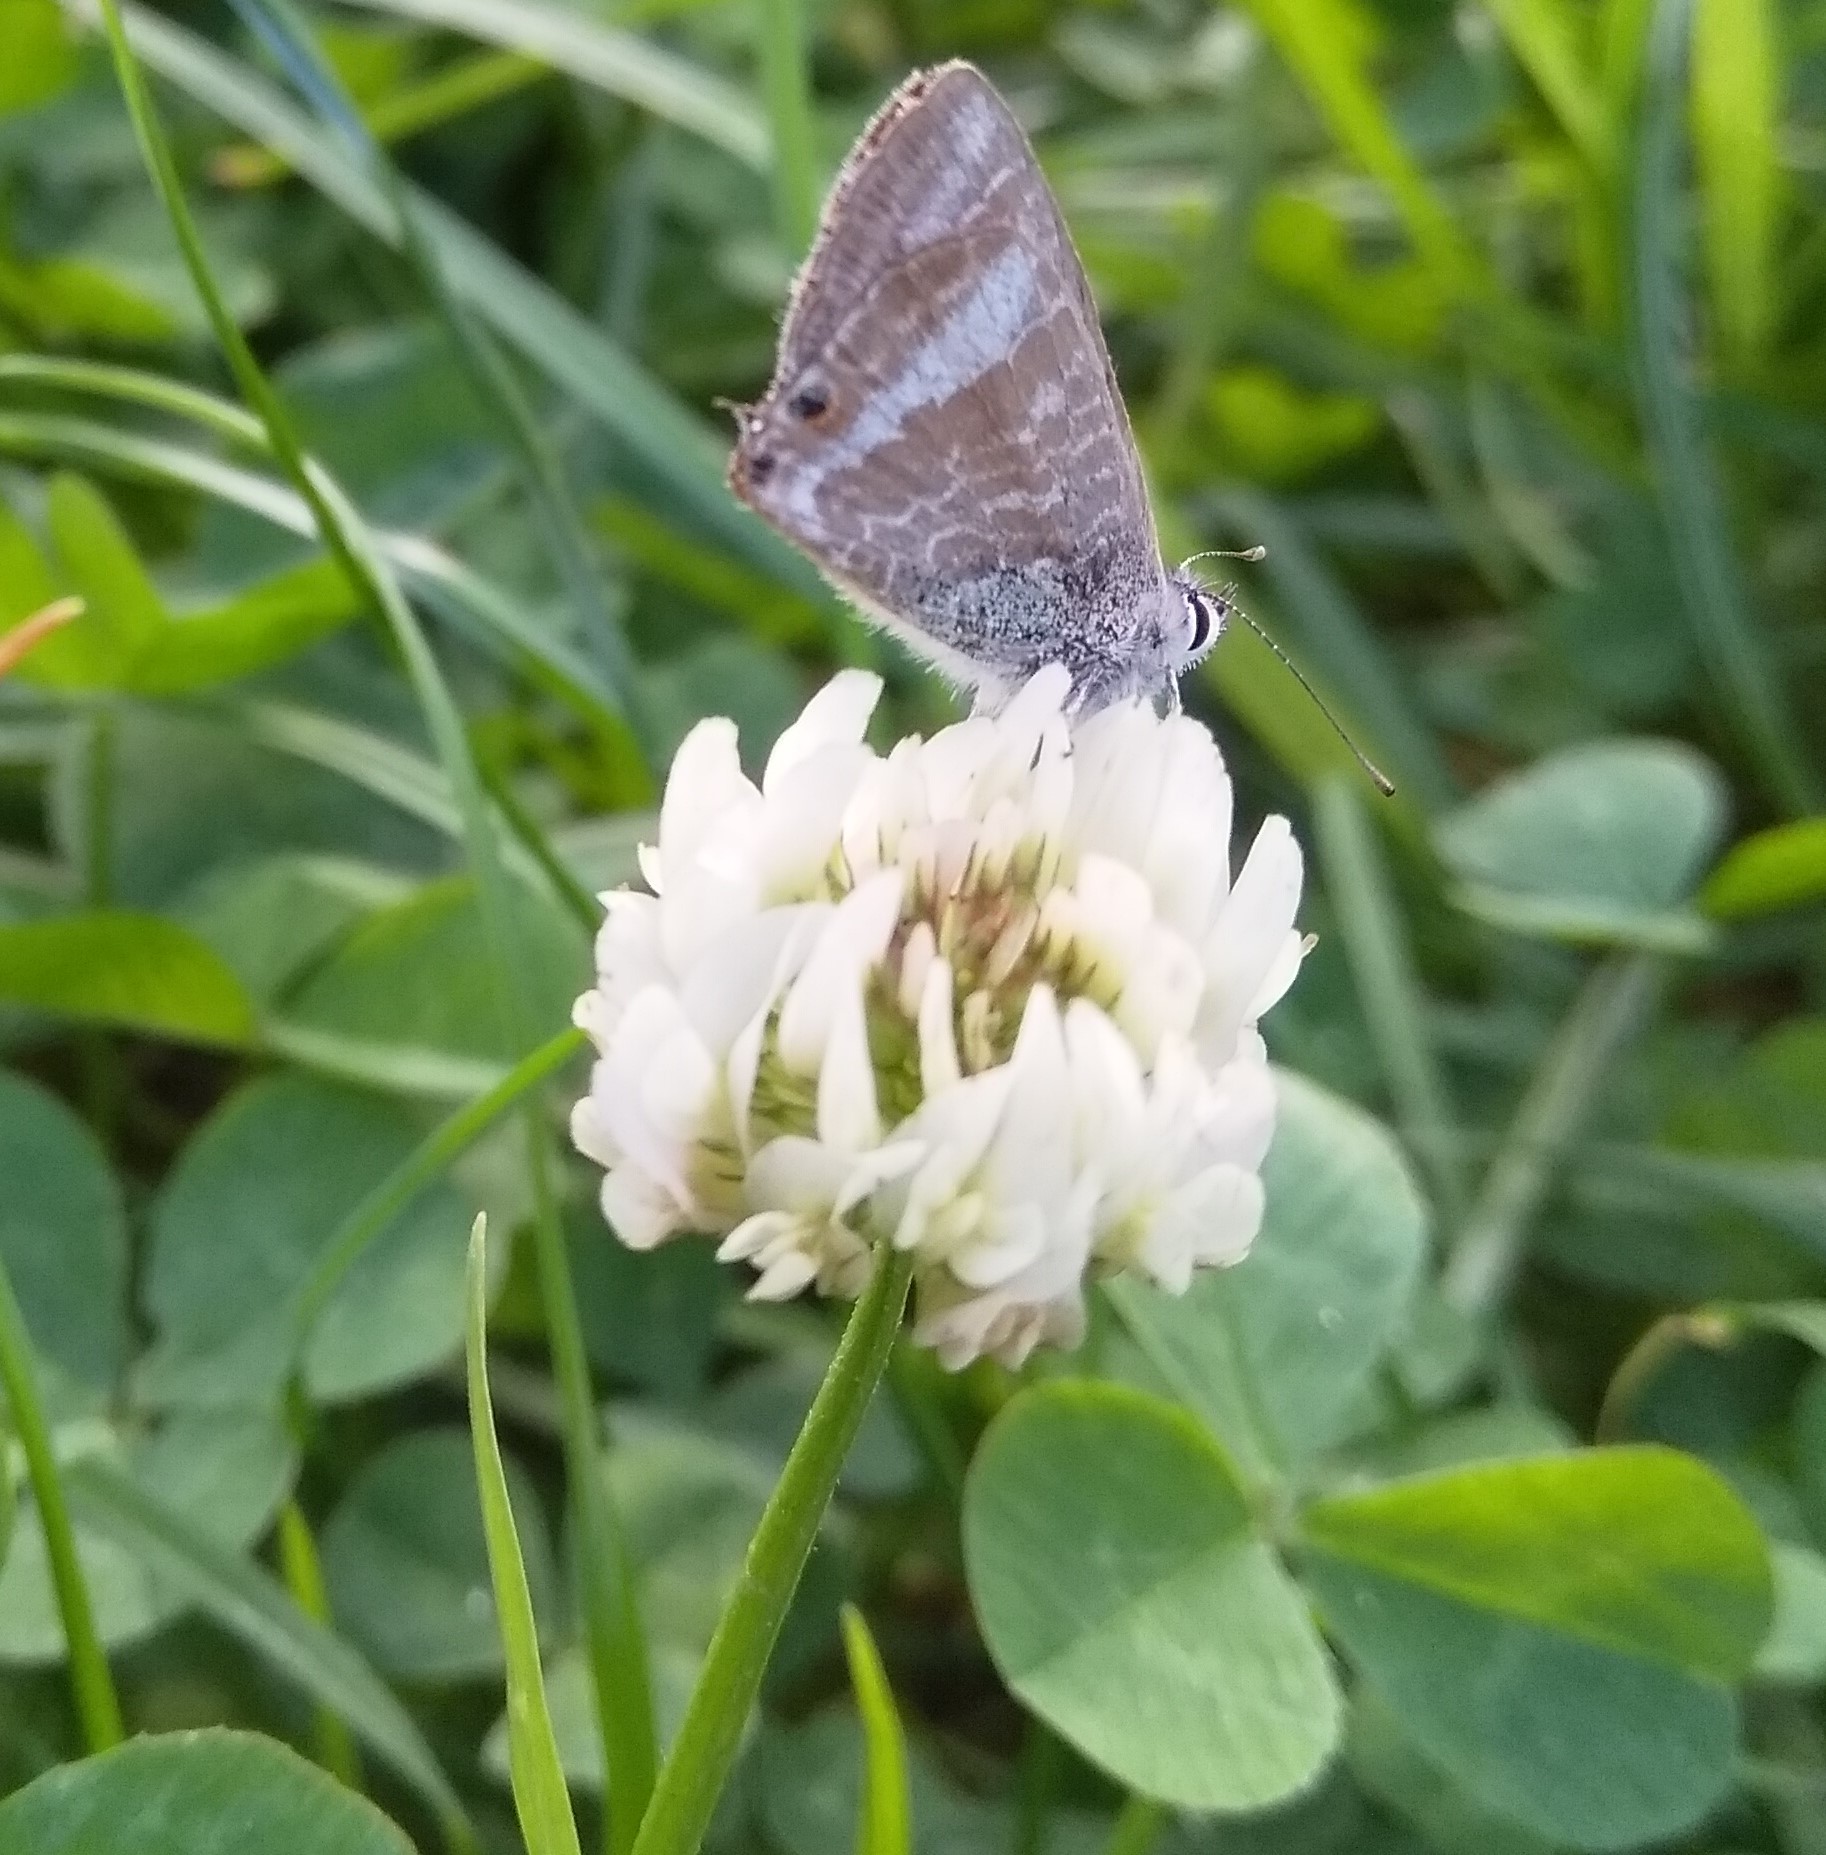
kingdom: Plantae
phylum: Tracheophyta
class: Magnoliopsida
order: Fabales
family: Fabaceae
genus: Trifolium
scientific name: Trifolium repens
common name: White clover
